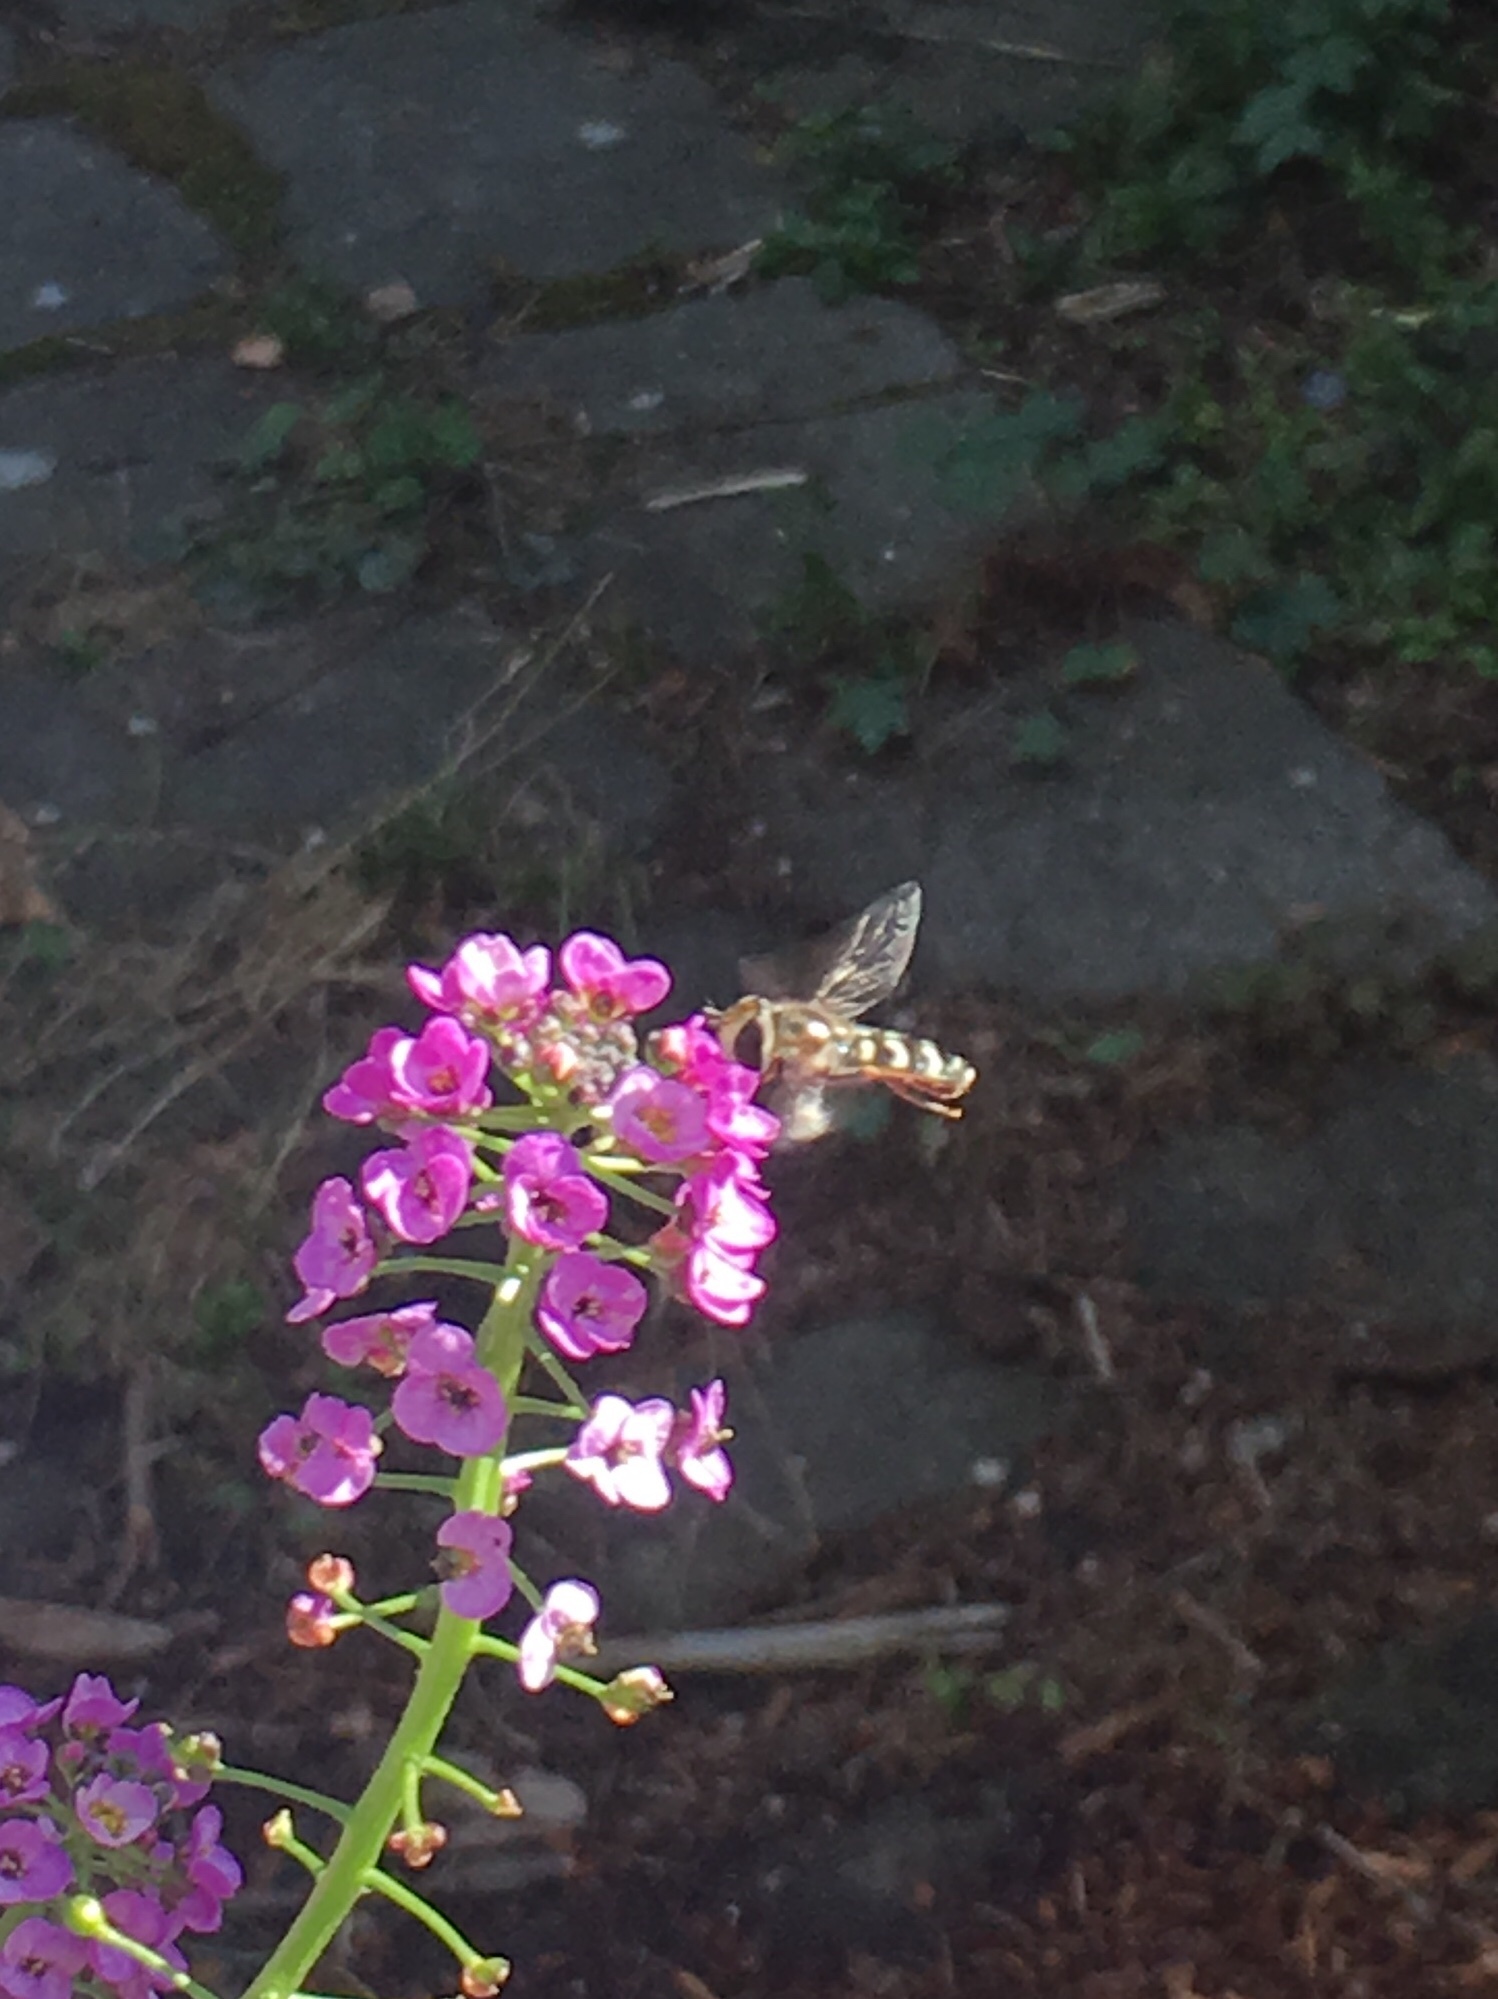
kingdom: Animalia
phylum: Arthropoda
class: Insecta
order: Diptera
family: Syrphidae
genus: Eupeodes
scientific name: Eupeodes volucris
